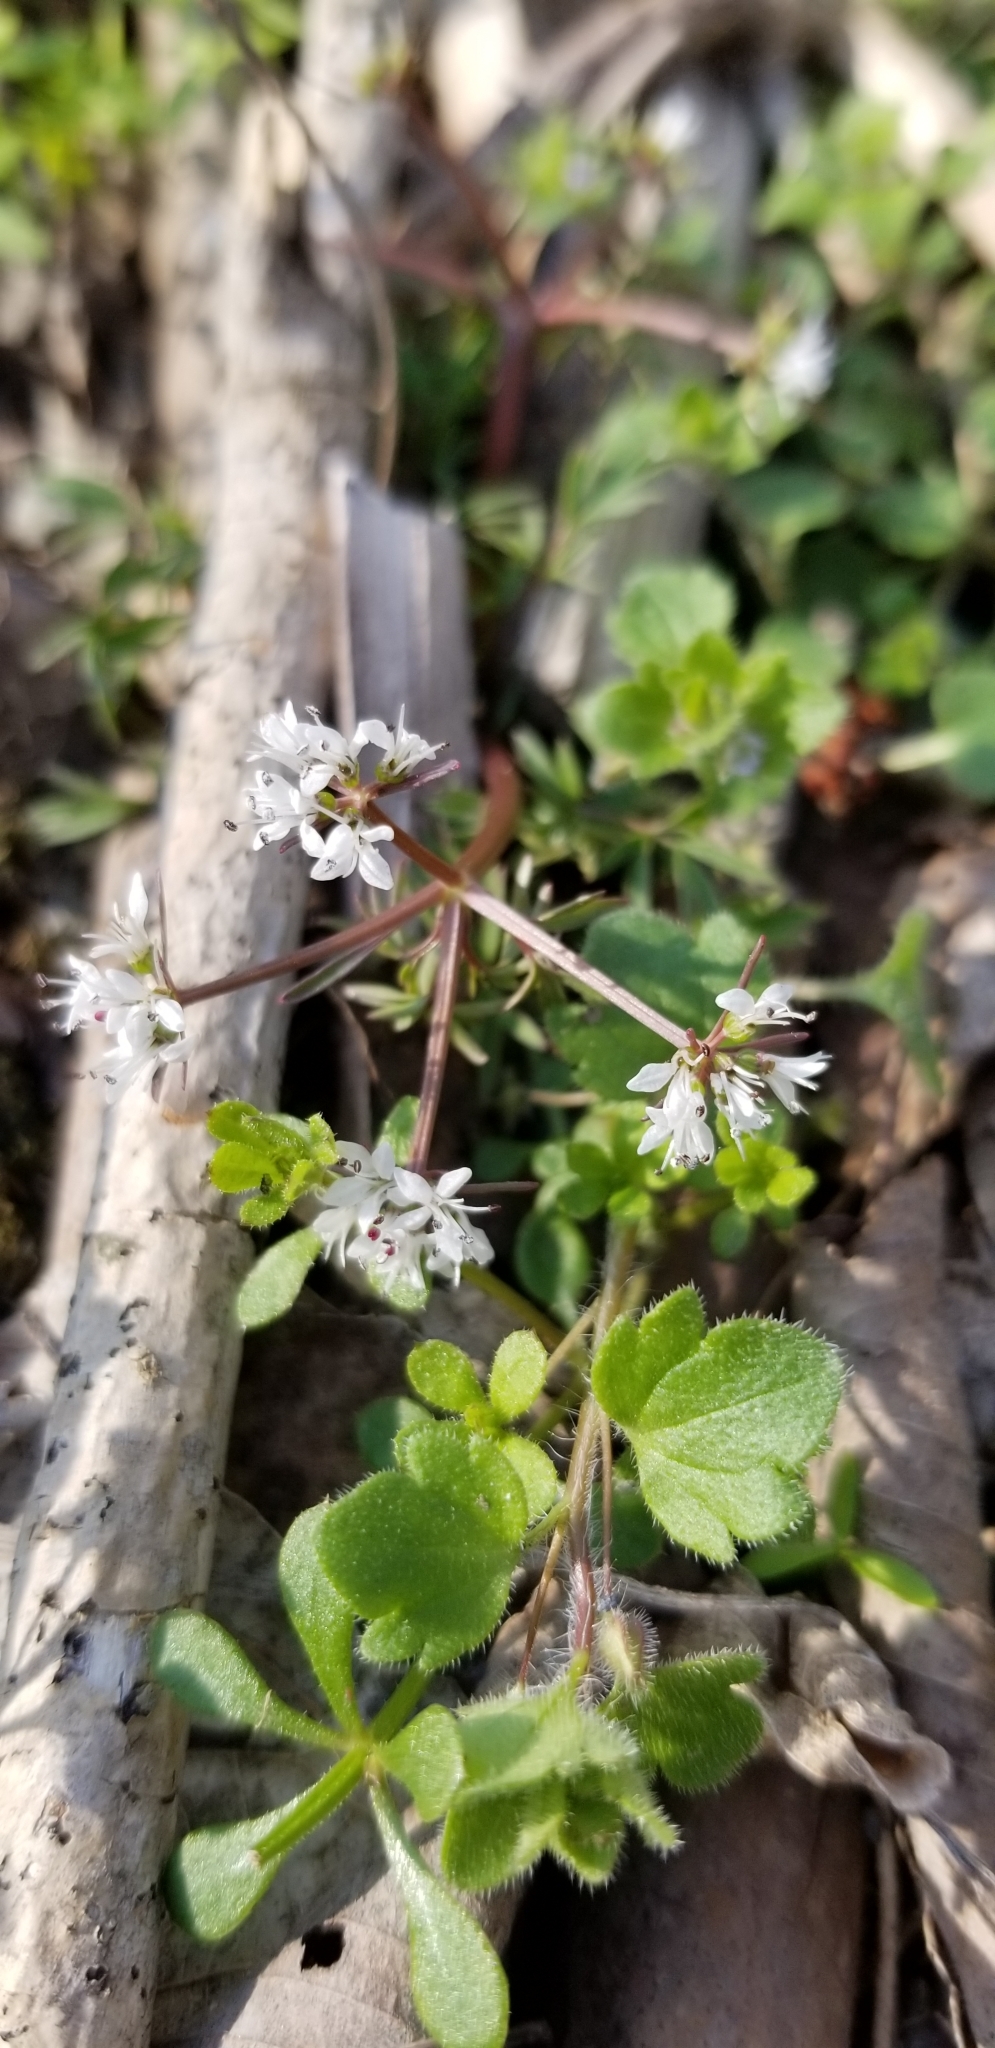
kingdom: Plantae
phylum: Tracheophyta
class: Magnoliopsida
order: Apiales
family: Apiaceae
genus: Erigenia
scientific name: Erigenia bulbosa
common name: Pepper-and-salt
